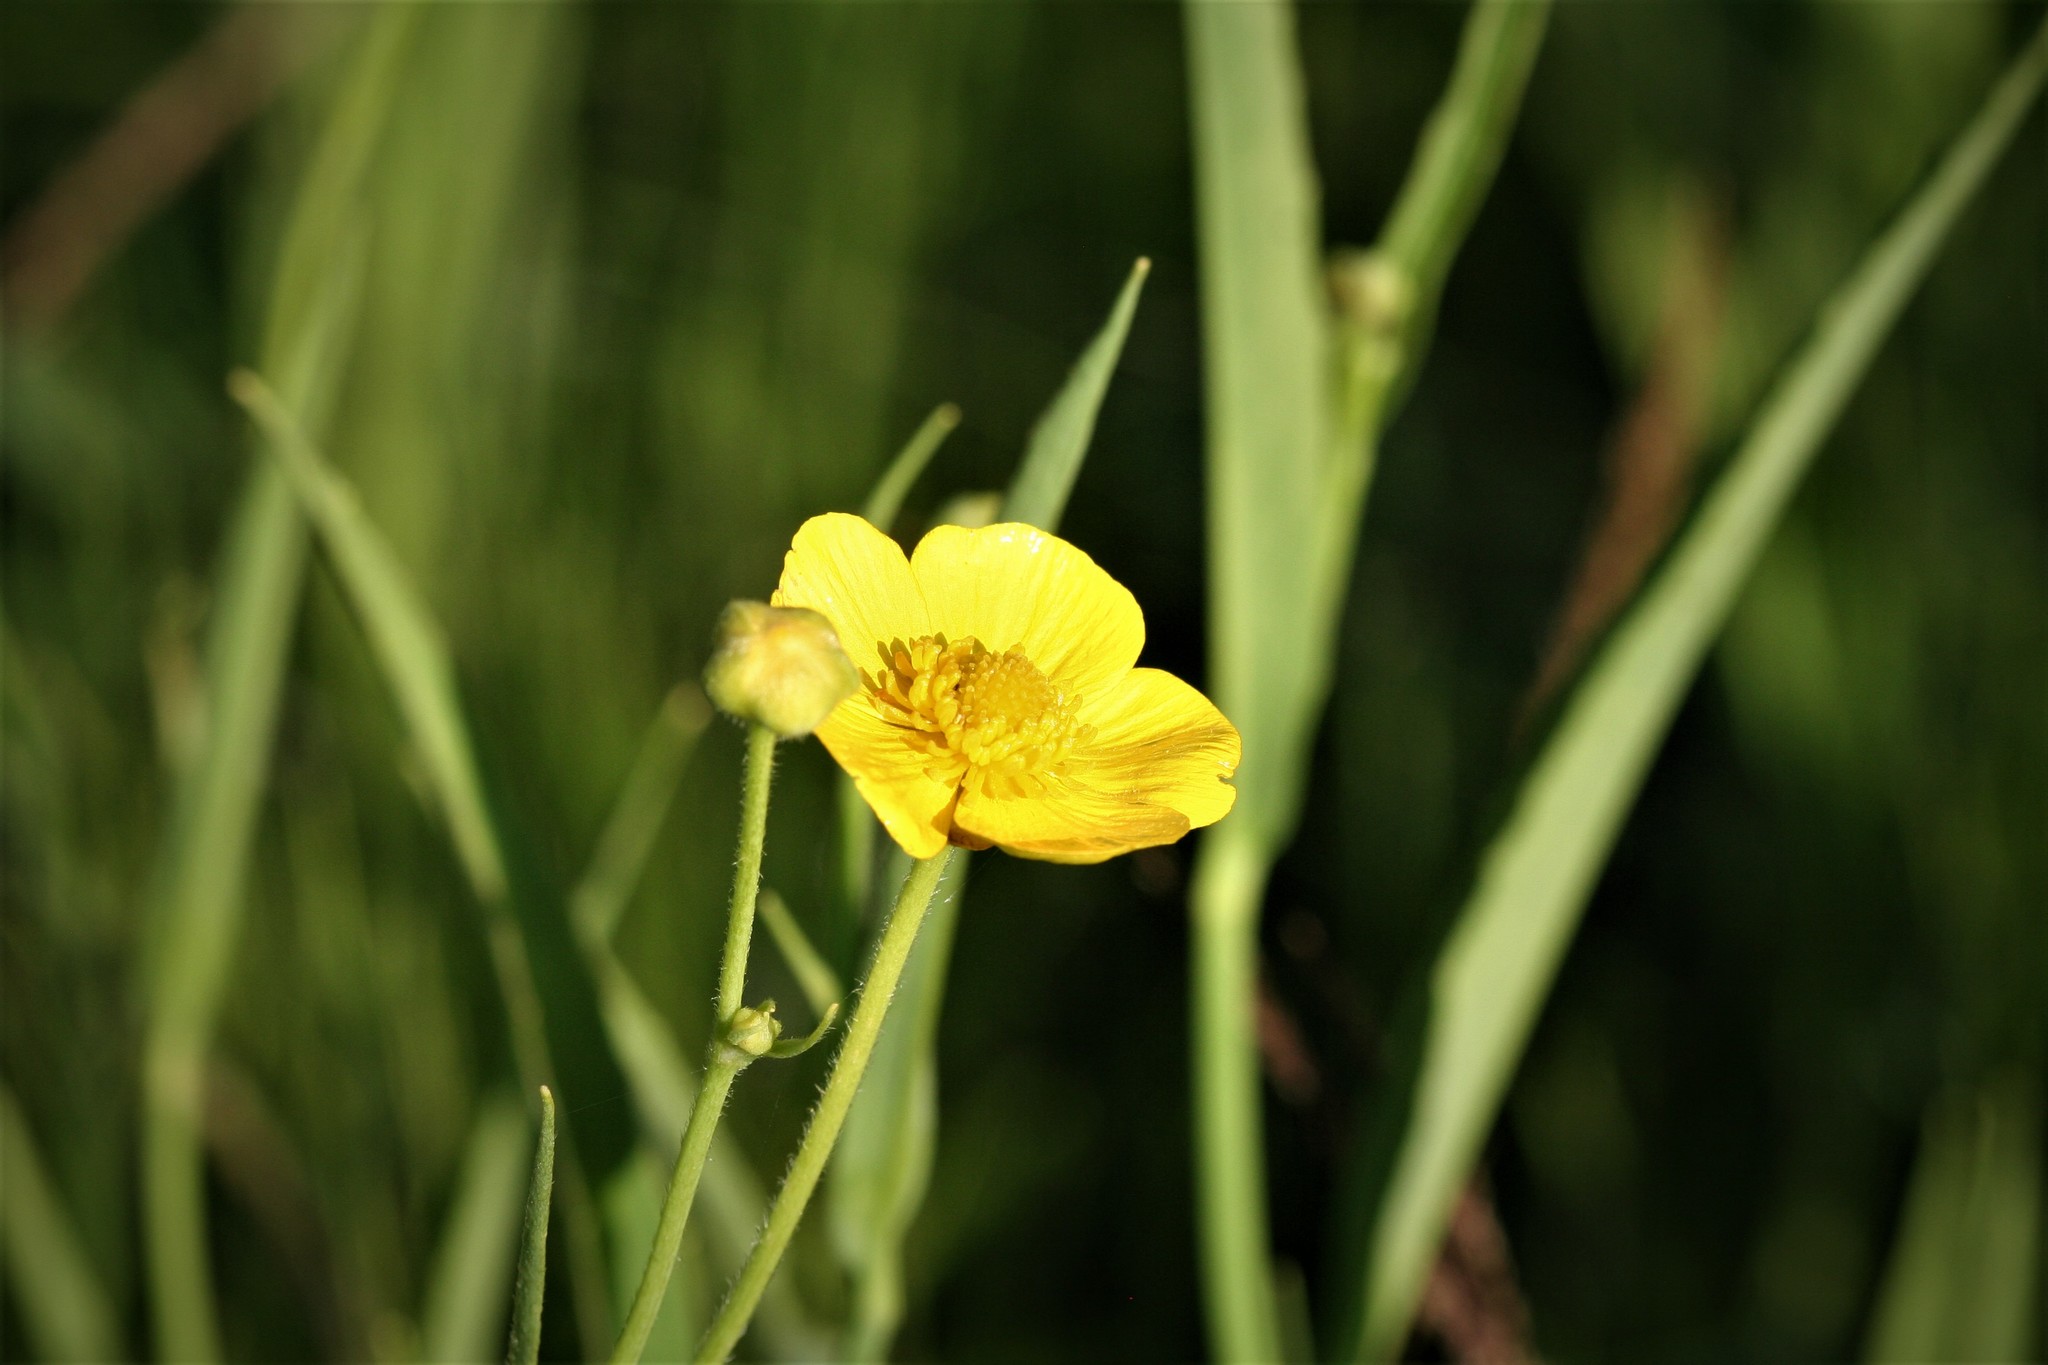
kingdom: Plantae
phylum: Tracheophyta
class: Magnoliopsida
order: Ranunculales
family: Ranunculaceae
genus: Ranunculus
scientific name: Ranunculus lingua
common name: Greater spearwort
